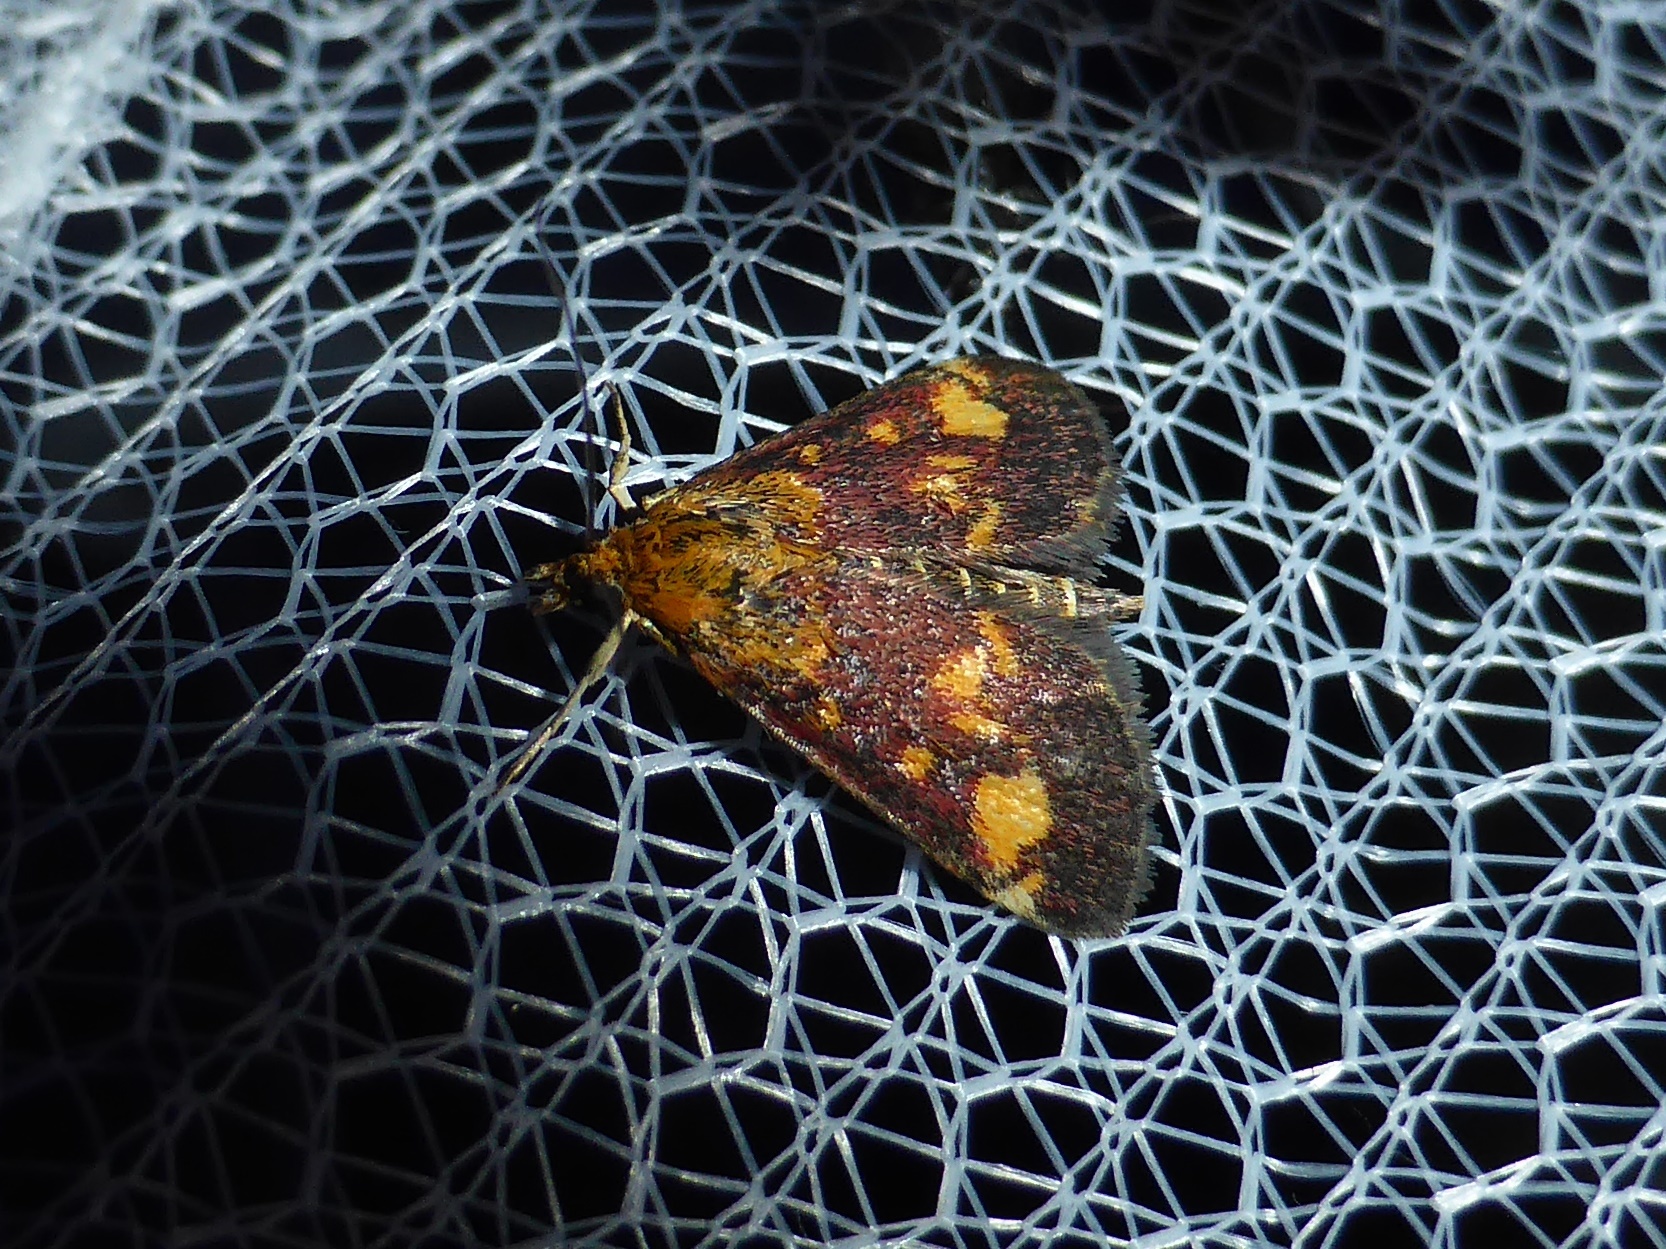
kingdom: Animalia
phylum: Arthropoda
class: Insecta
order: Lepidoptera
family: Crambidae
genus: Pyrausta
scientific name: Pyrausta aurata
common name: Small purple & gold
